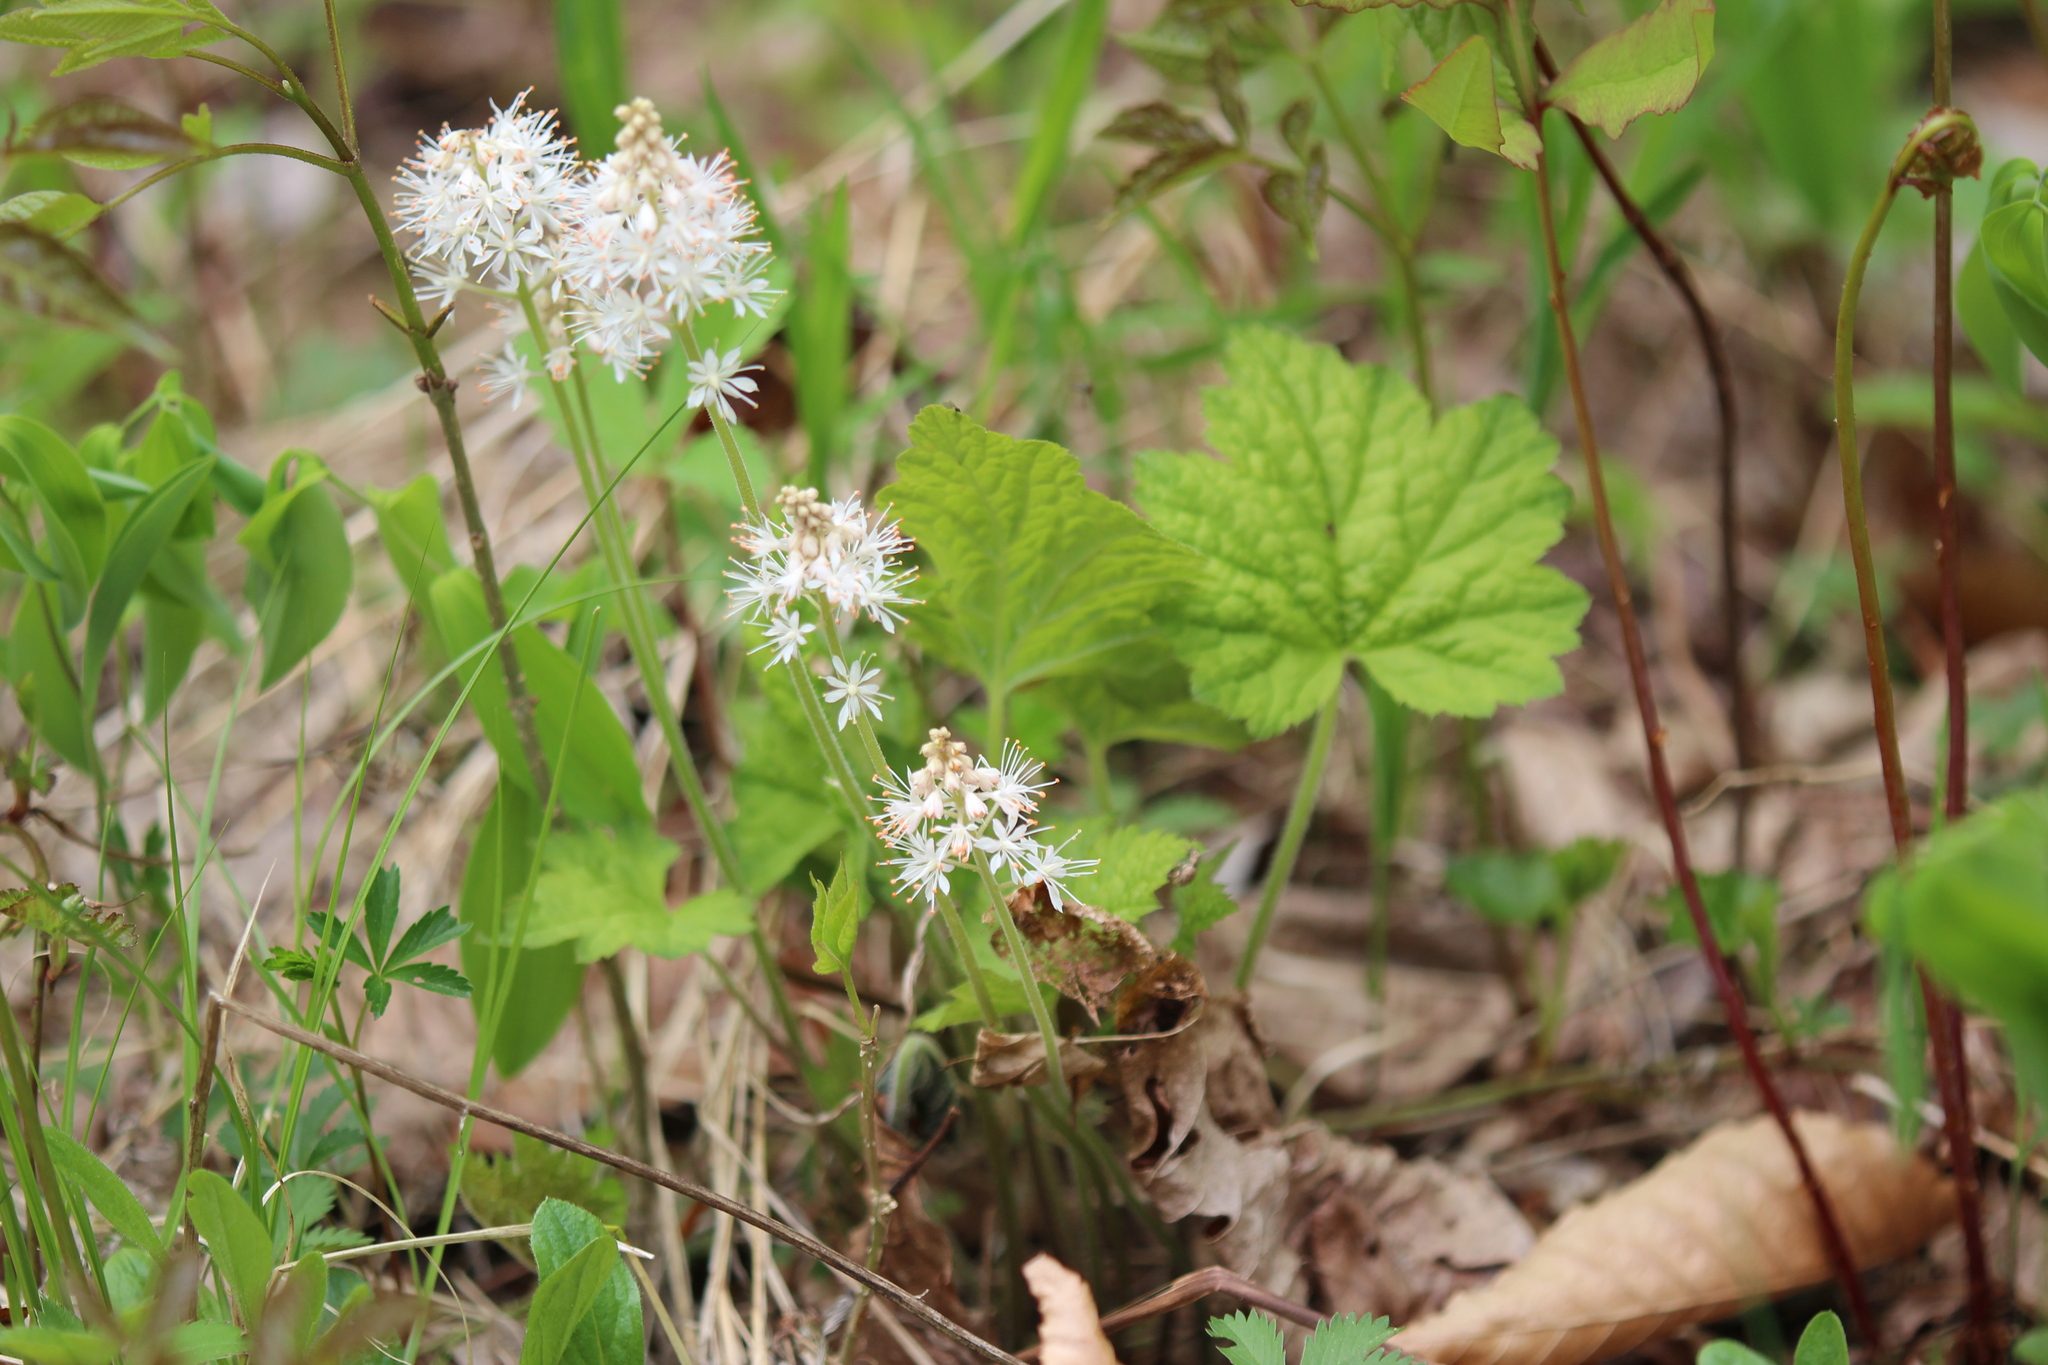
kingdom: Plantae
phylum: Tracheophyta
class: Magnoliopsida
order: Saxifragales
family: Saxifragaceae
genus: Tiarella
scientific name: Tiarella stolonifera
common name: Stoloniferous foamflower
